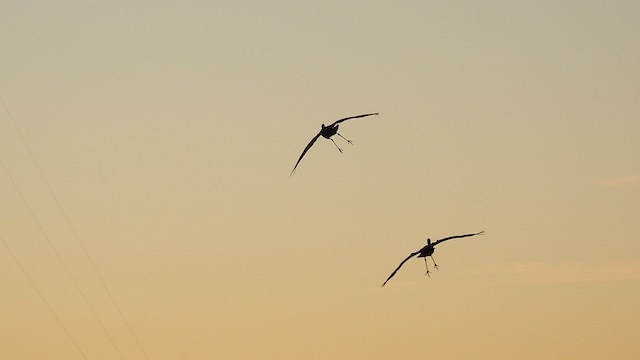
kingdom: Animalia
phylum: Chordata
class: Aves
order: Gruiformes
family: Gruidae
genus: Grus
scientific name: Grus canadensis
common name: Sandhill crane
